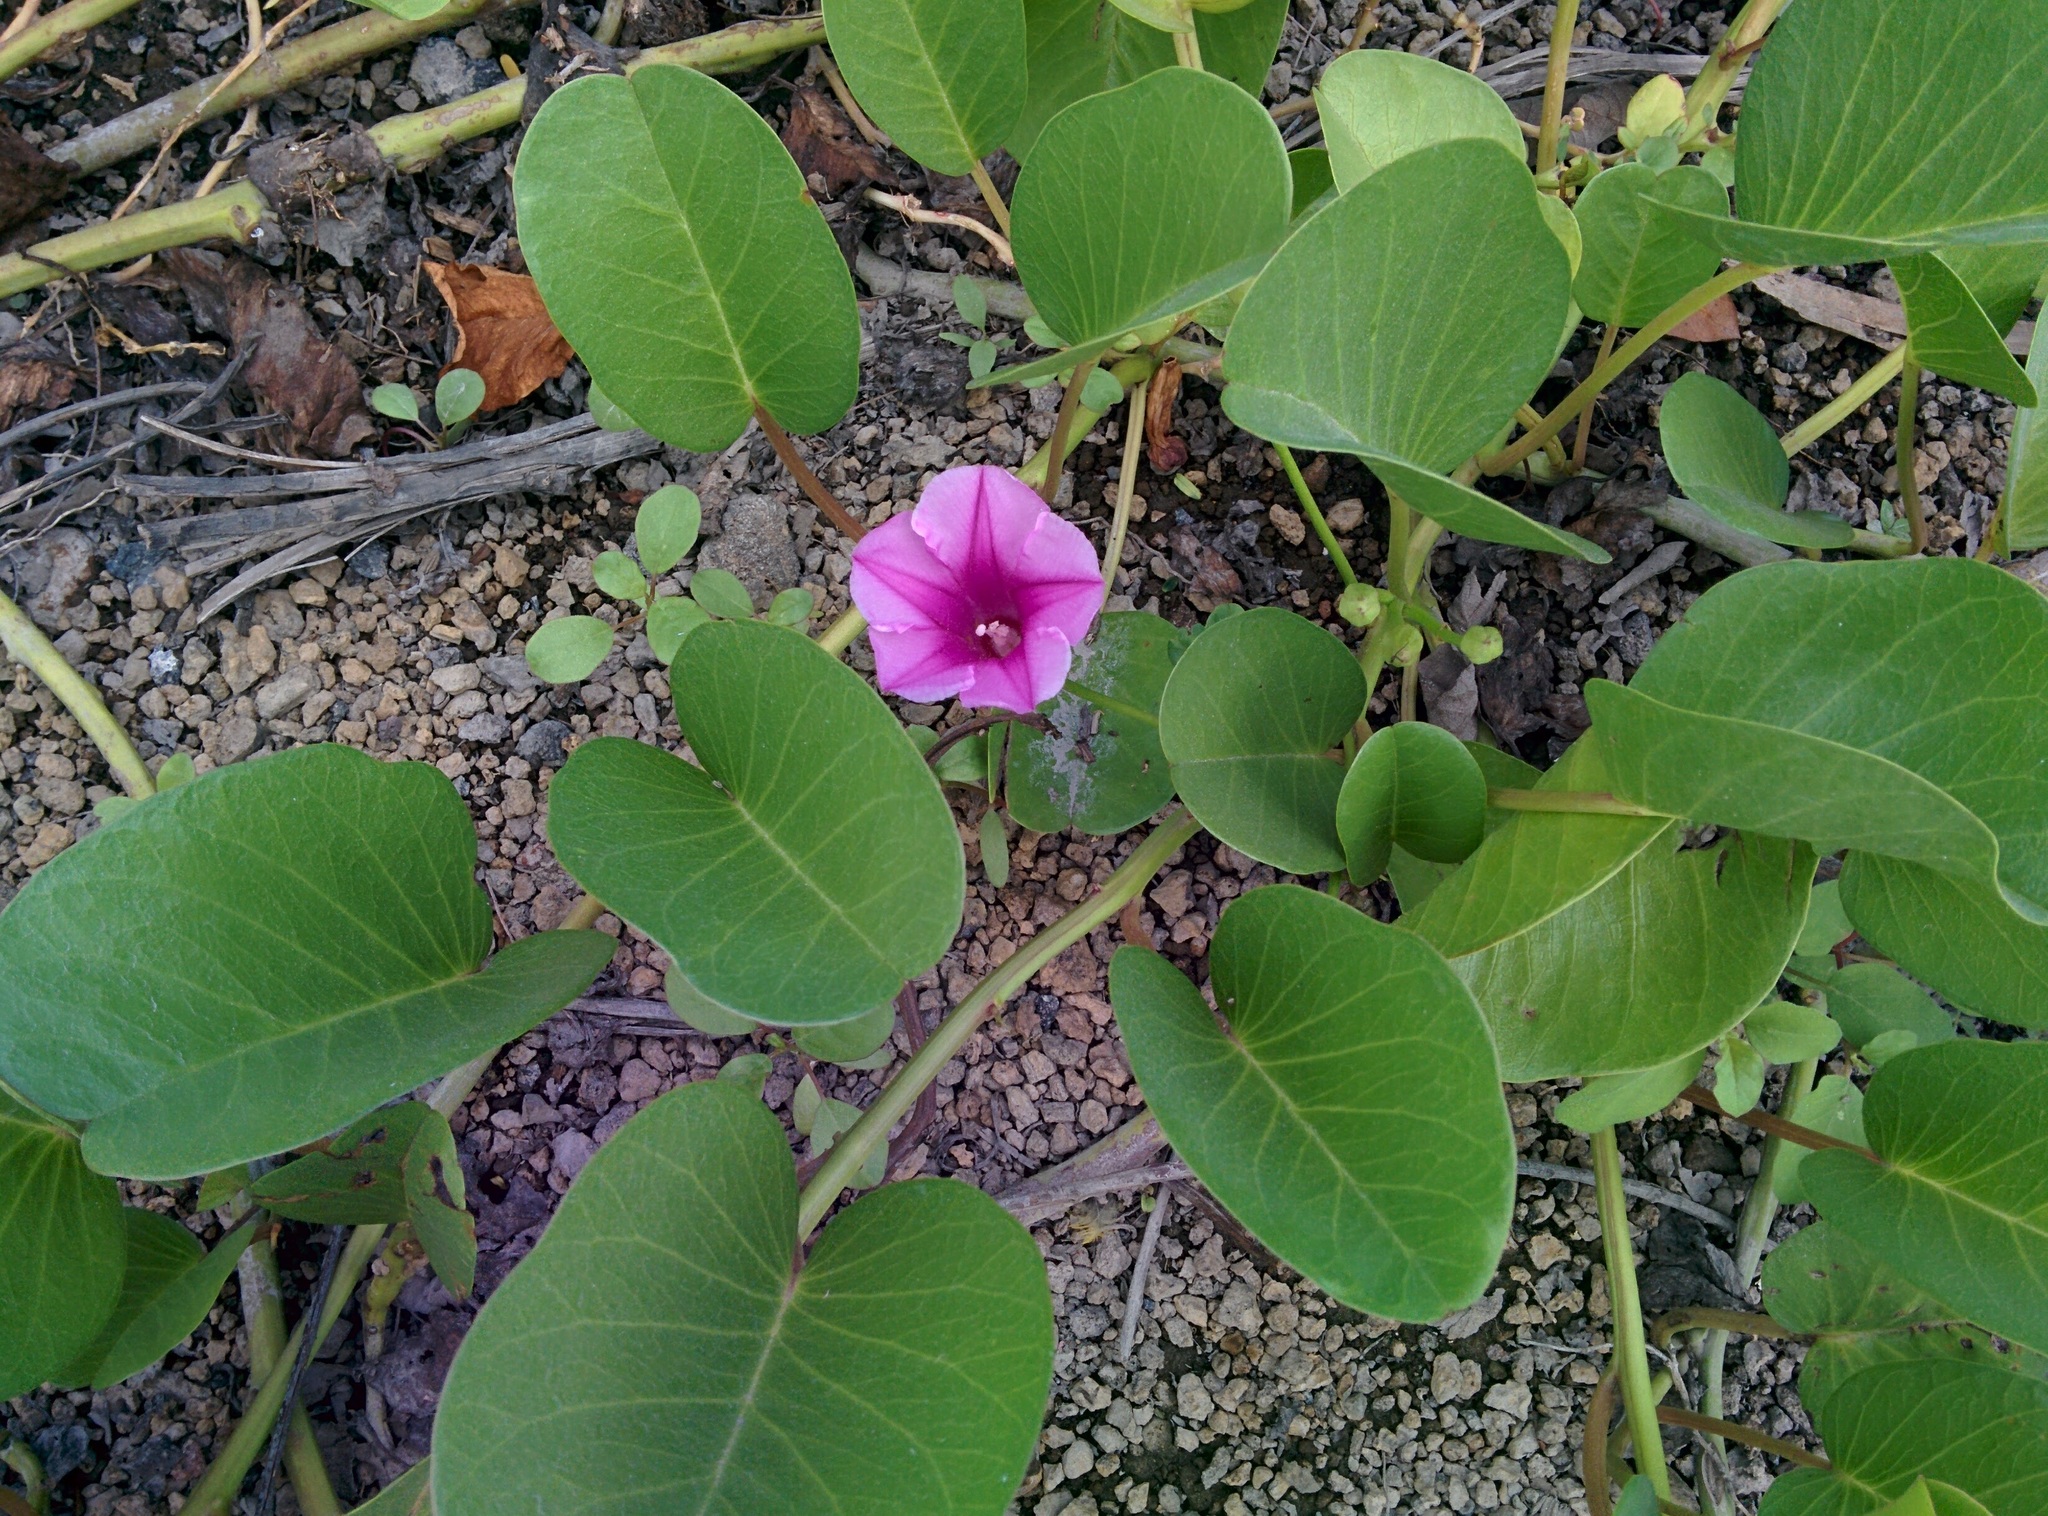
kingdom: Plantae
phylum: Tracheophyta
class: Magnoliopsida
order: Solanales
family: Convolvulaceae
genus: Ipomoea
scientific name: Ipomoea pes-caprae
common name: Beach morning glory
